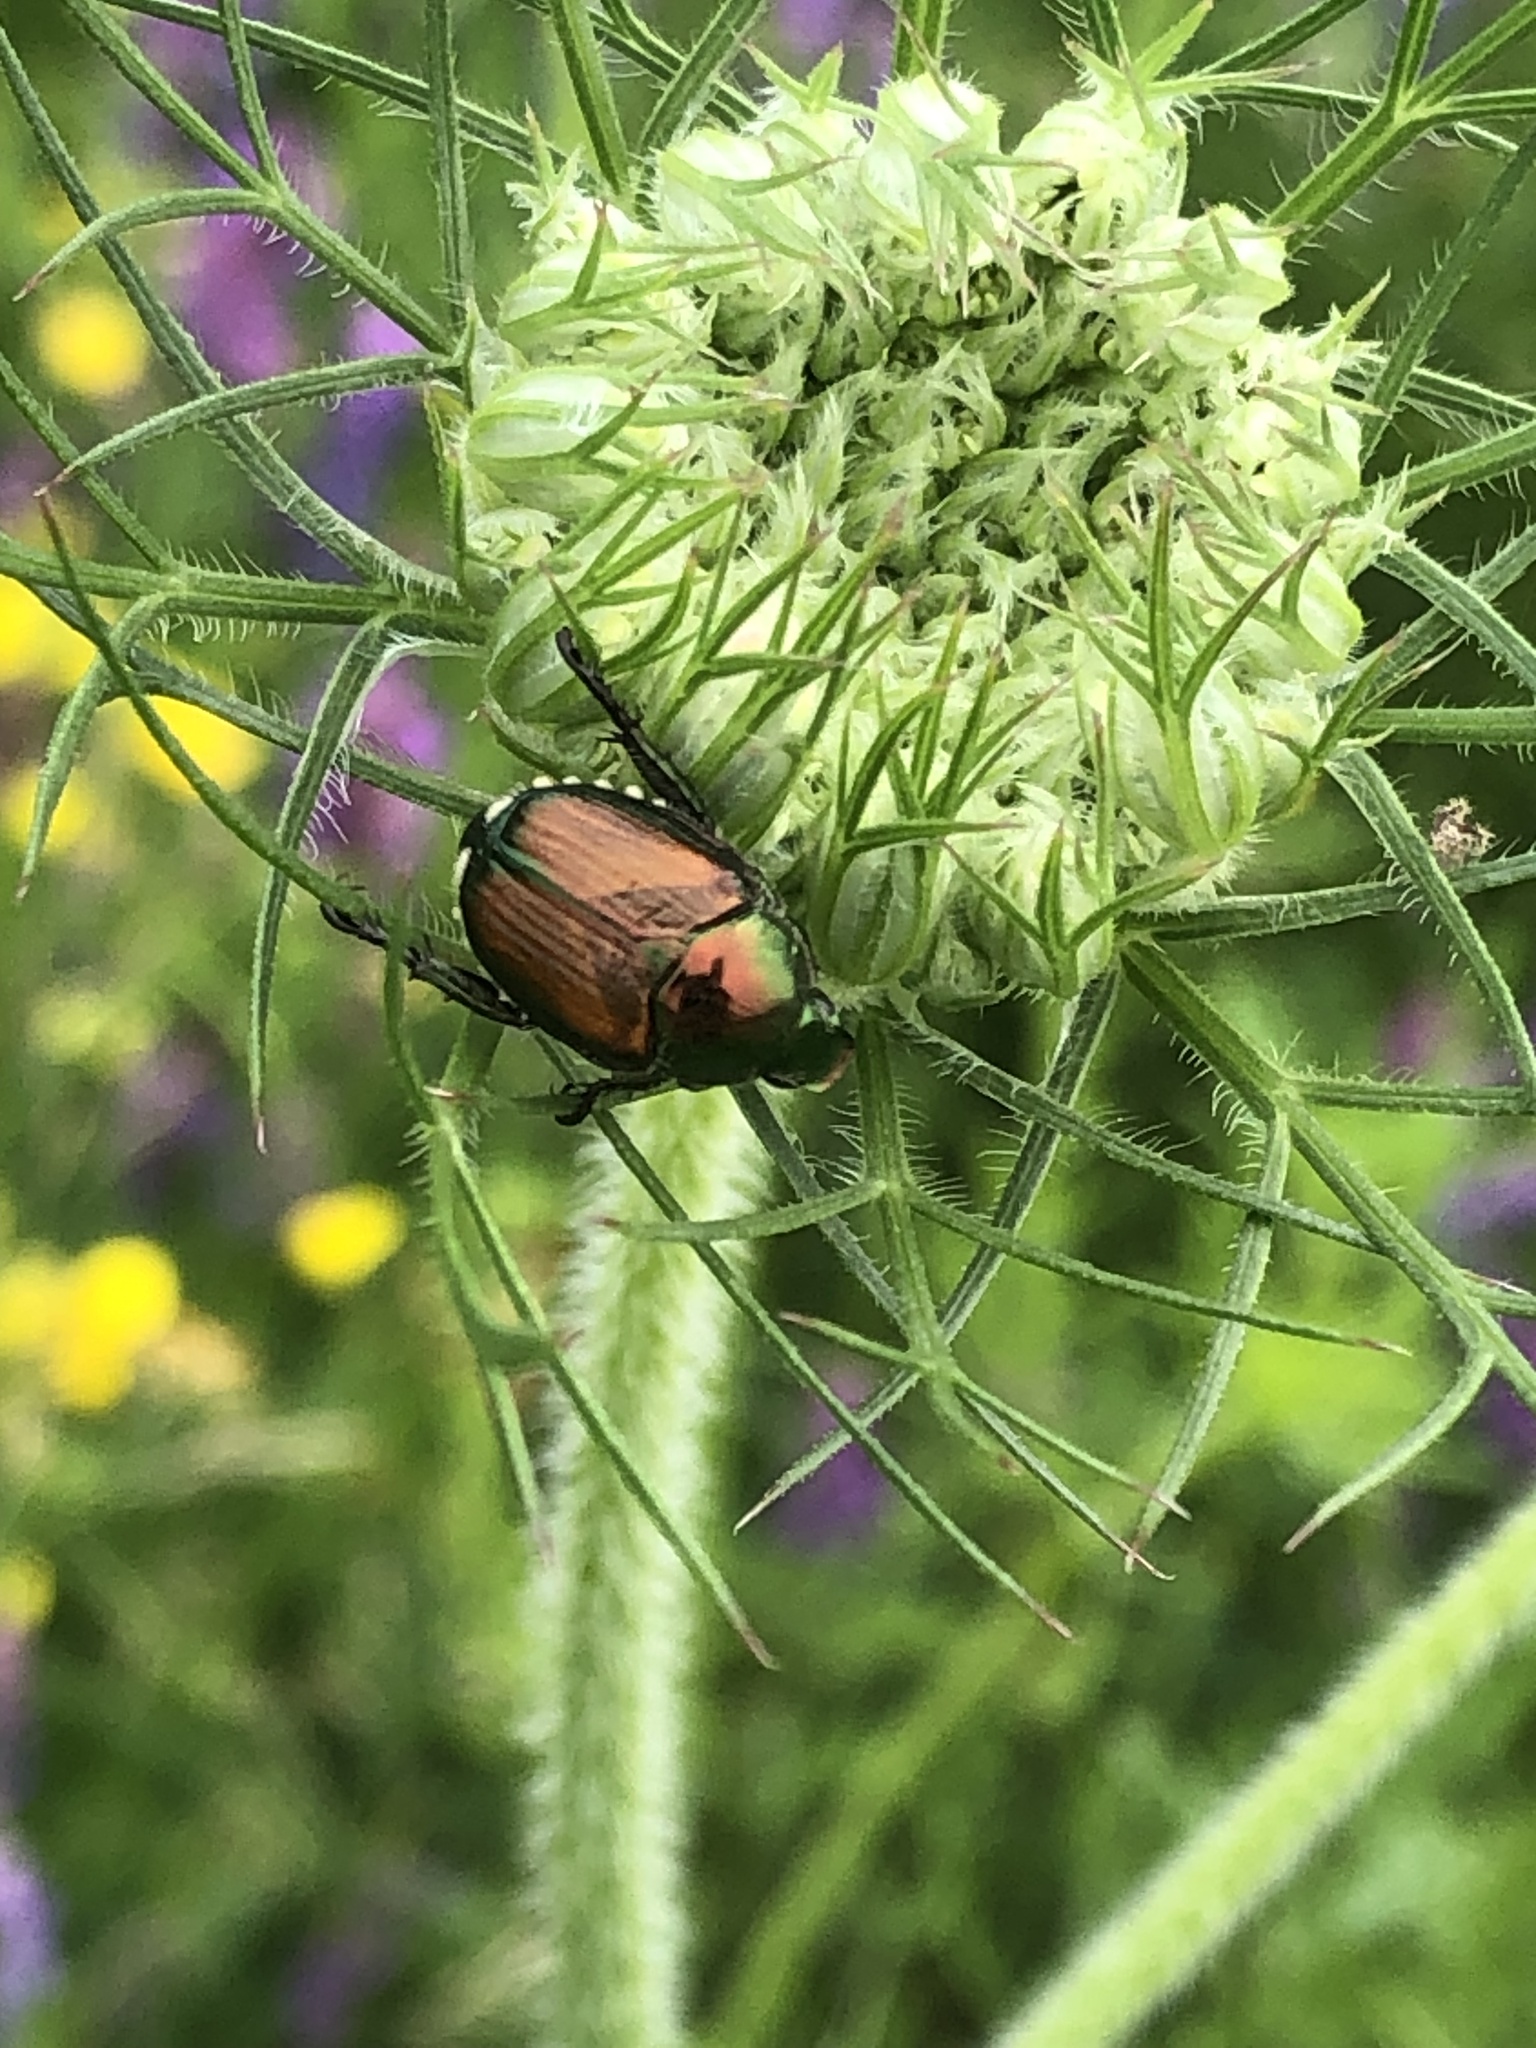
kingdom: Animalia
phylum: Arthropoda
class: Insecta
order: Coleoptera
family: Scarabaeidae
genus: Popillia
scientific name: Popillia japonica
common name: Japanese beetle
